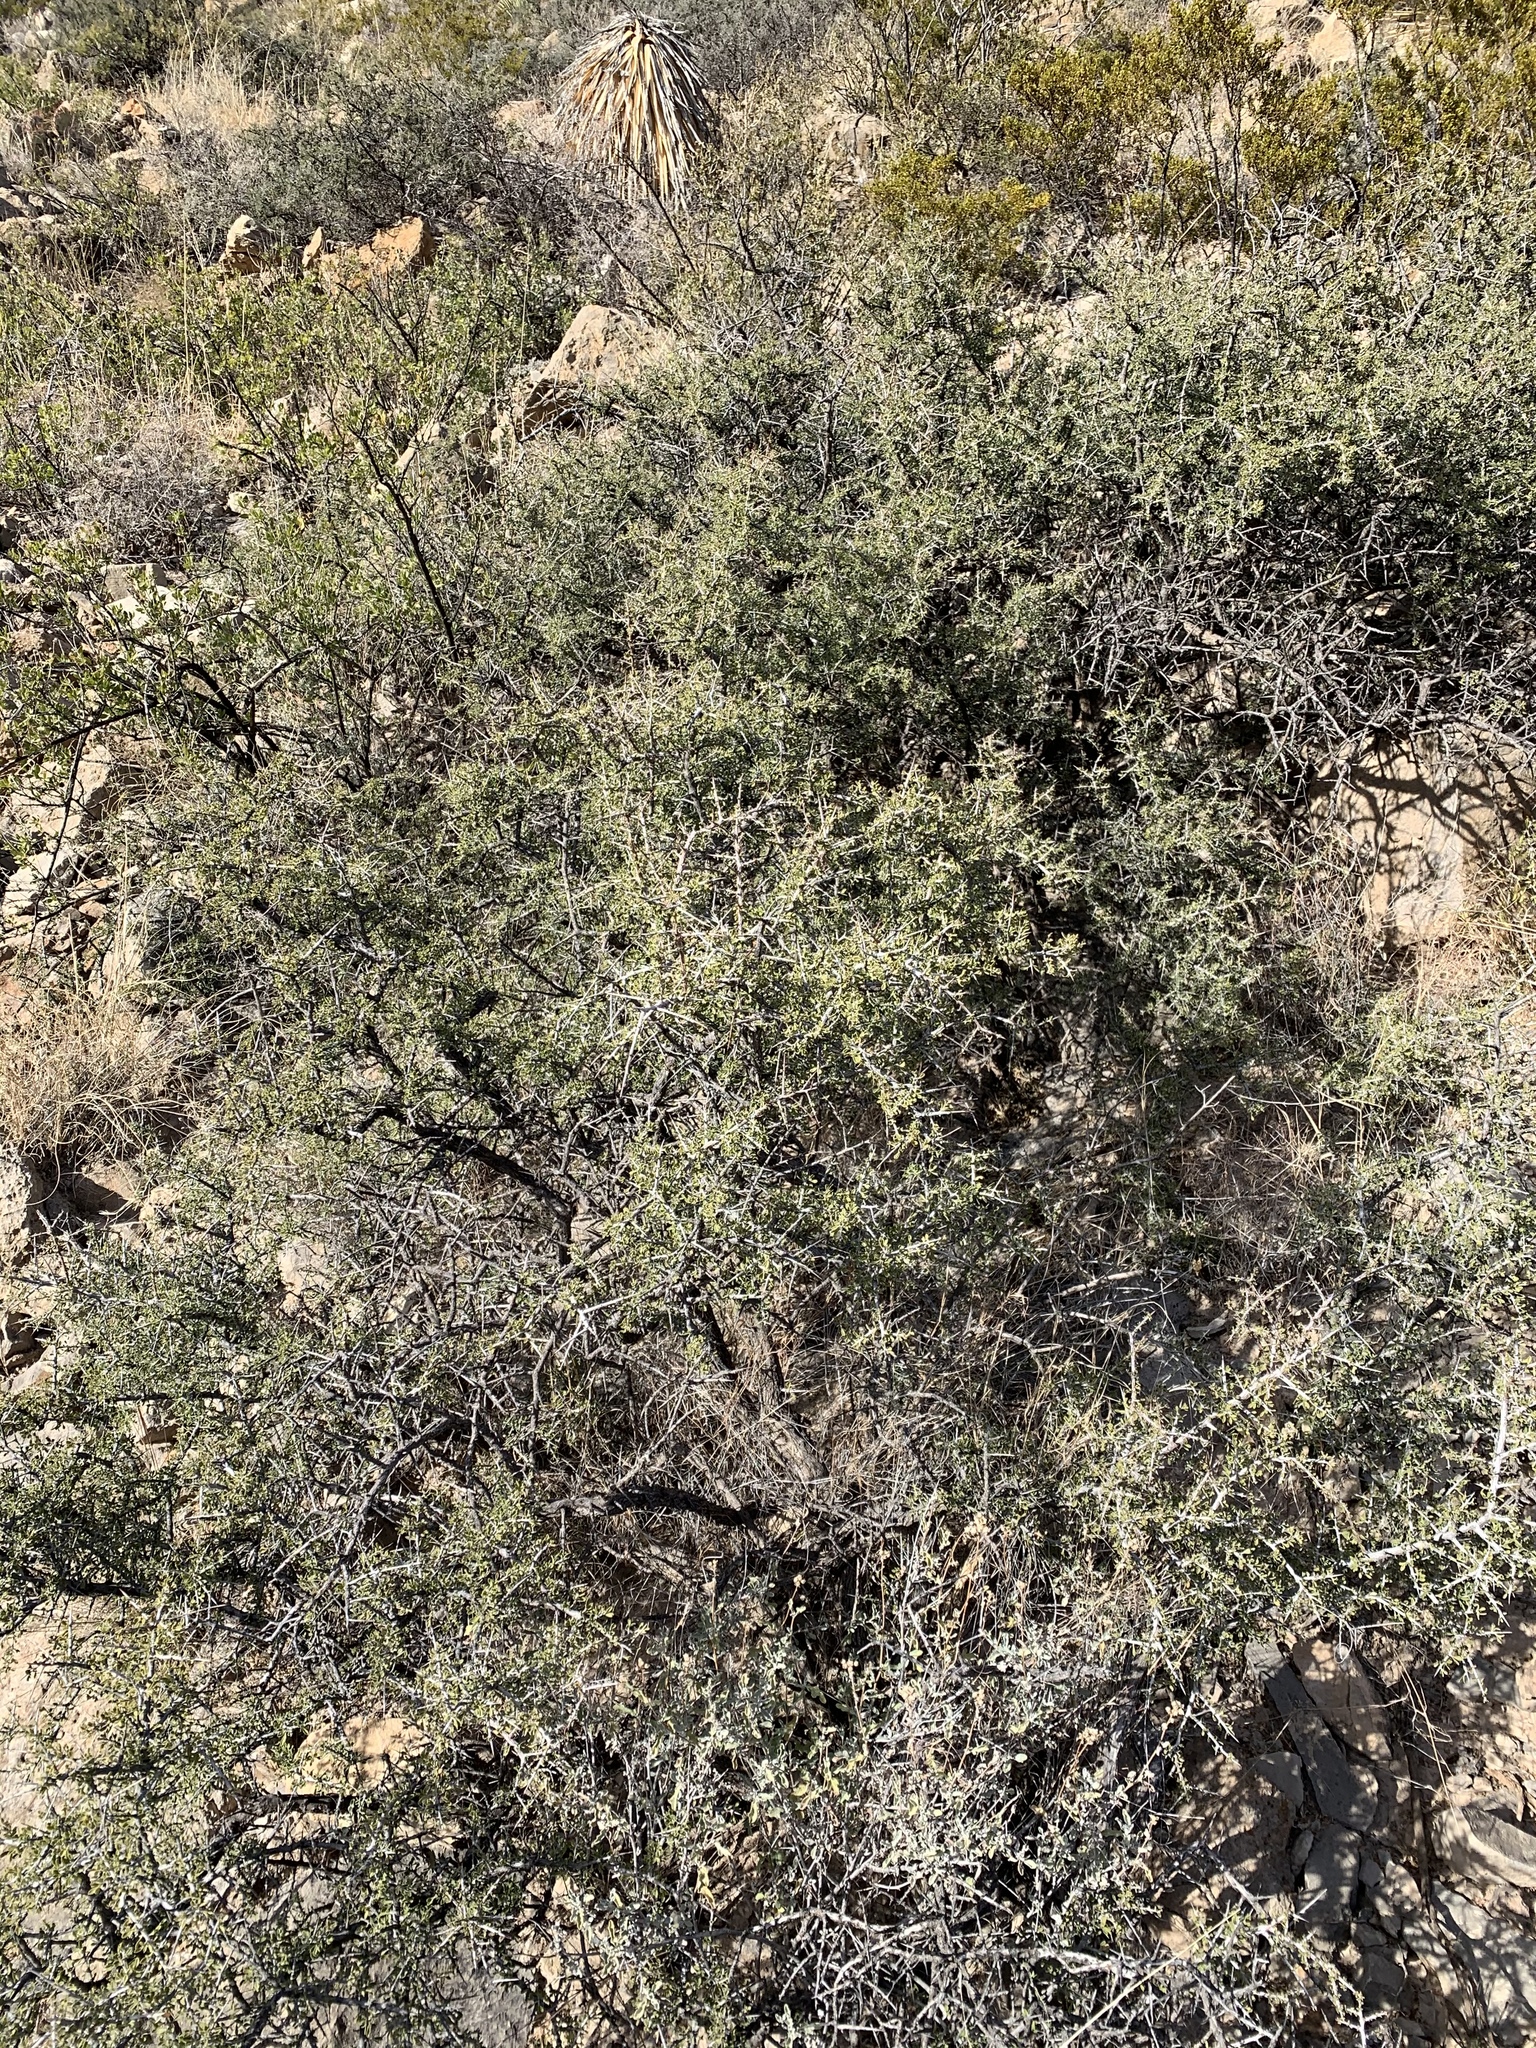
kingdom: Plantae
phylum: Tracheophyta
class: Magnoliopsida
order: Rosales
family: Rhamnaceae
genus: Condalia
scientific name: Condalia warnockii
